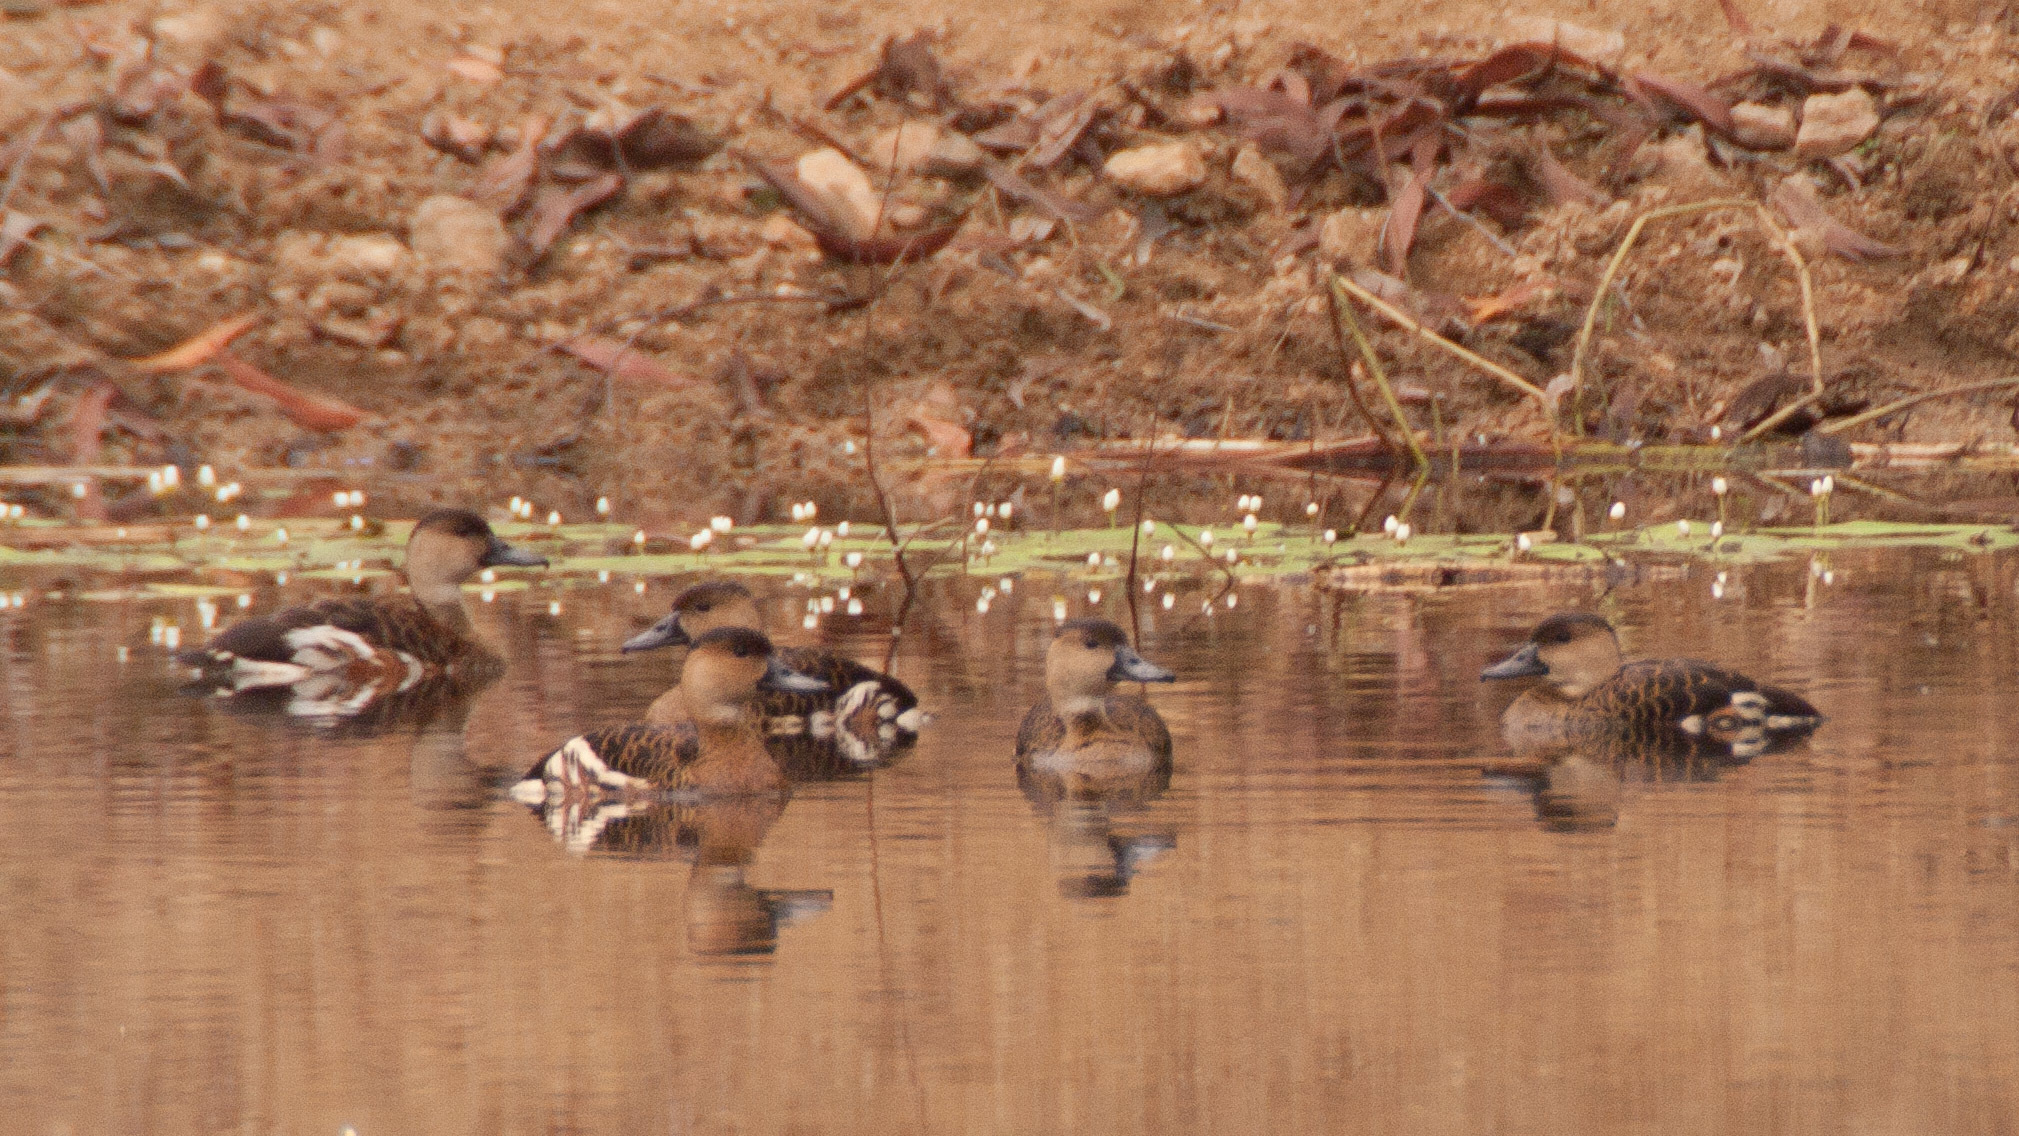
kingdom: Animalia
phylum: Chordata
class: Aves
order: Anseriformes
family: Anatidae
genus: Dendrocygna
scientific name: Dendrocygna arcuata
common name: Wandering whistling-duck
